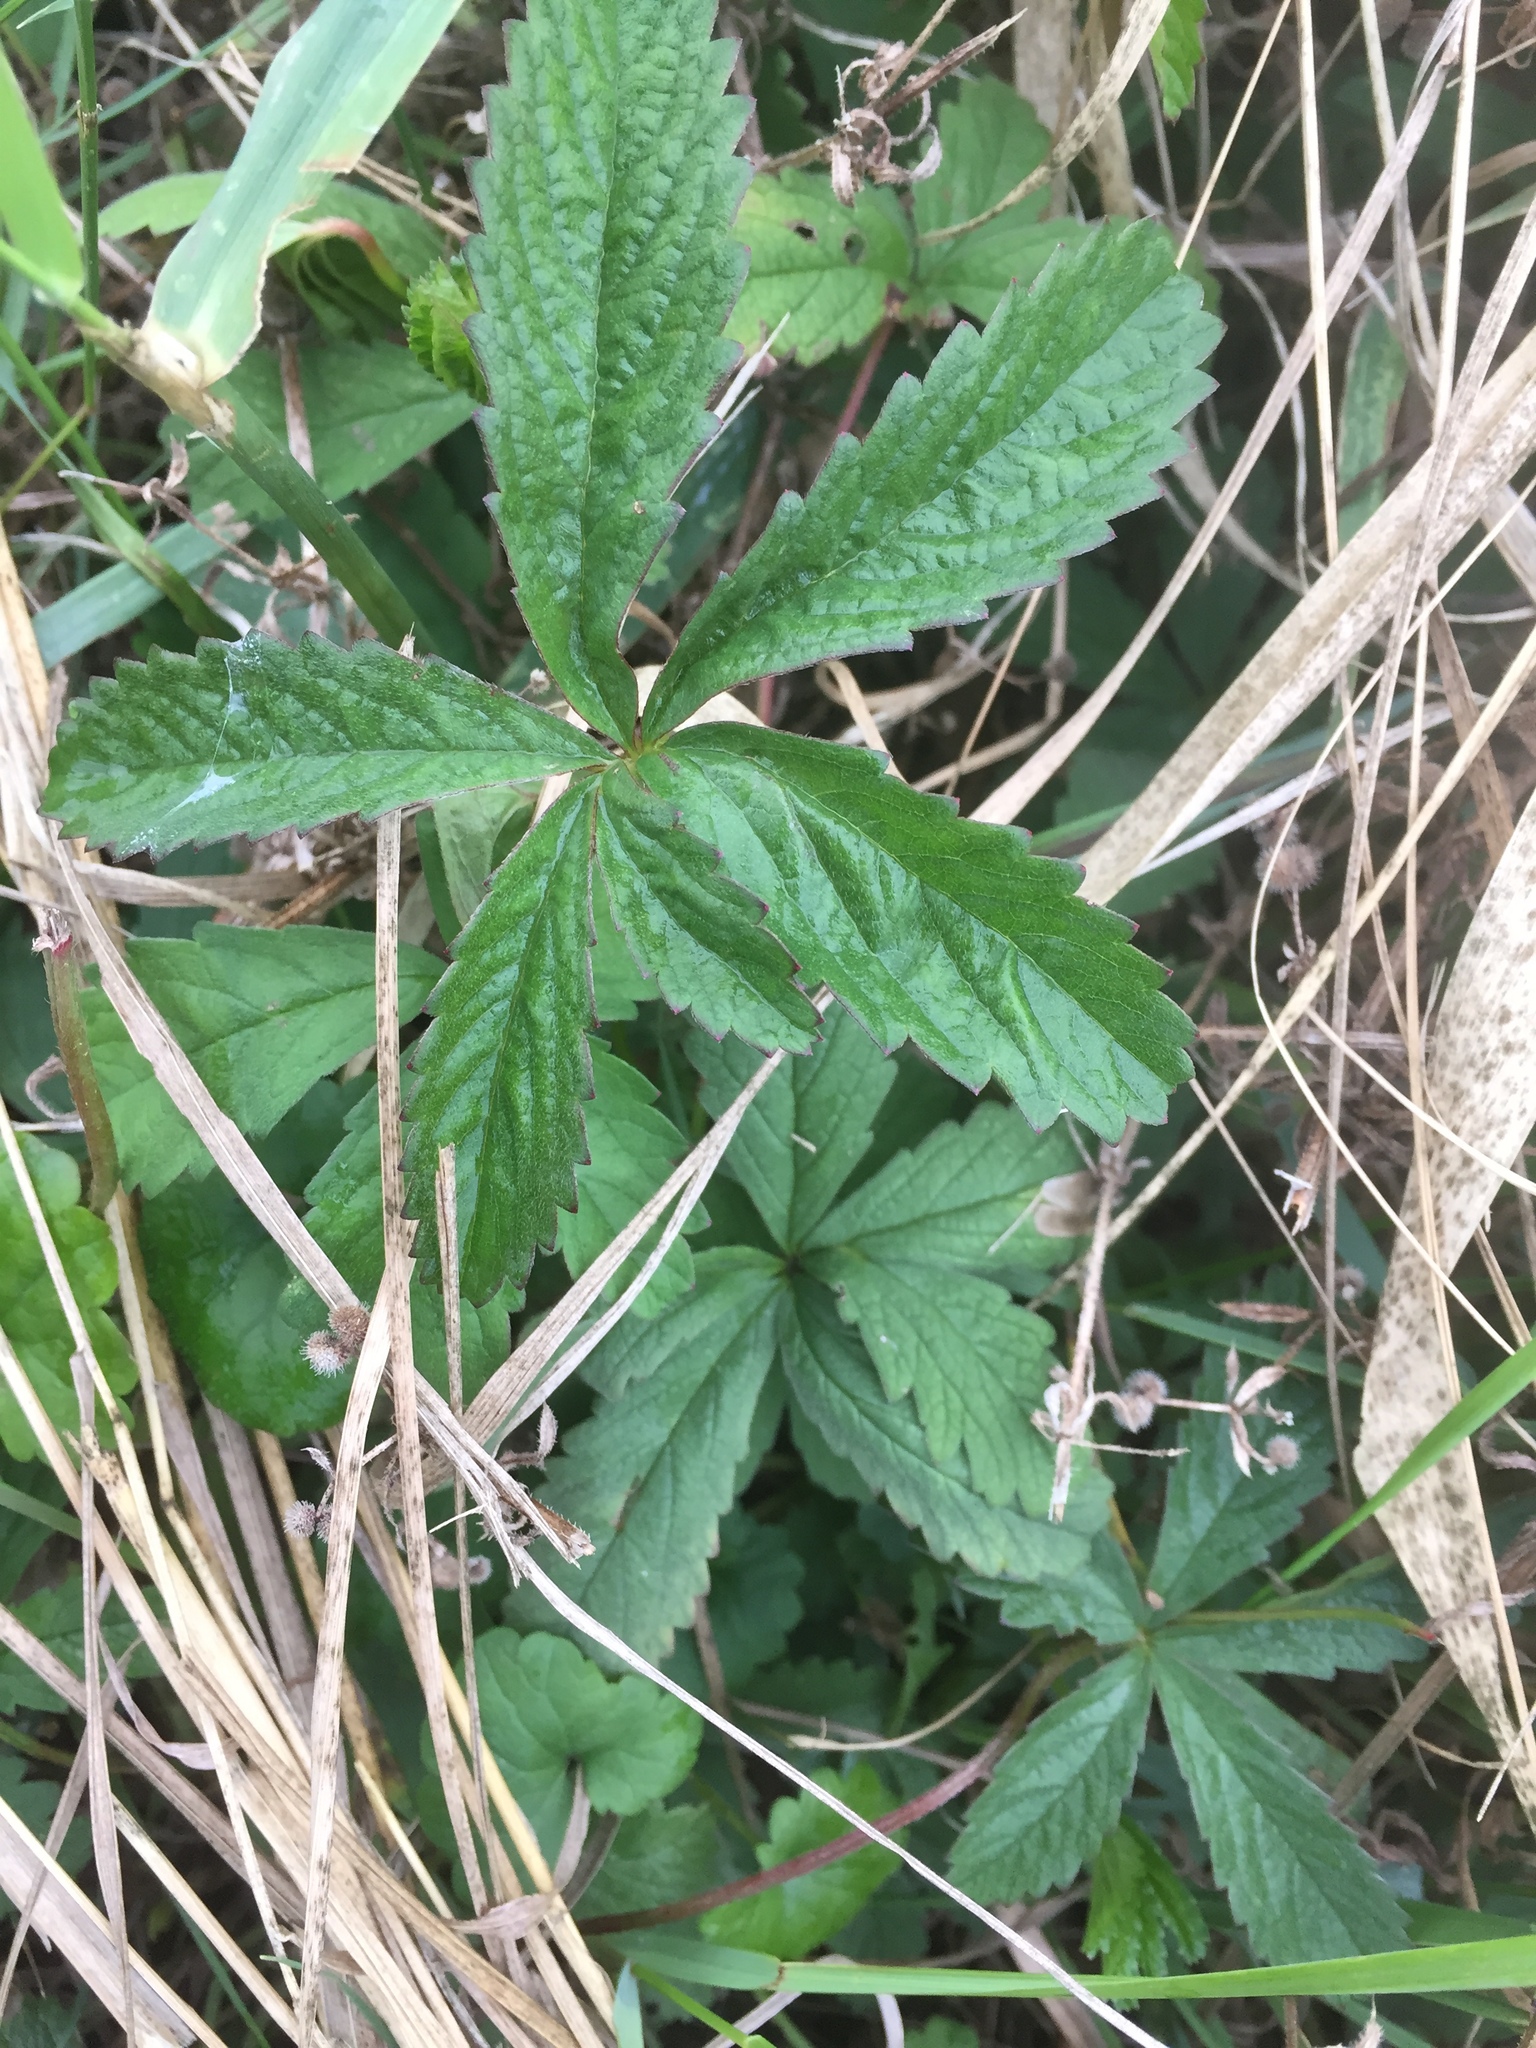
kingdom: Plantae
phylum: Tracheophyta
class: Magnoliopsida
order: Rosales
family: Rosaceae
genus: Potentilla
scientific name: Potentilla reptans
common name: Creeping cinquefoil
